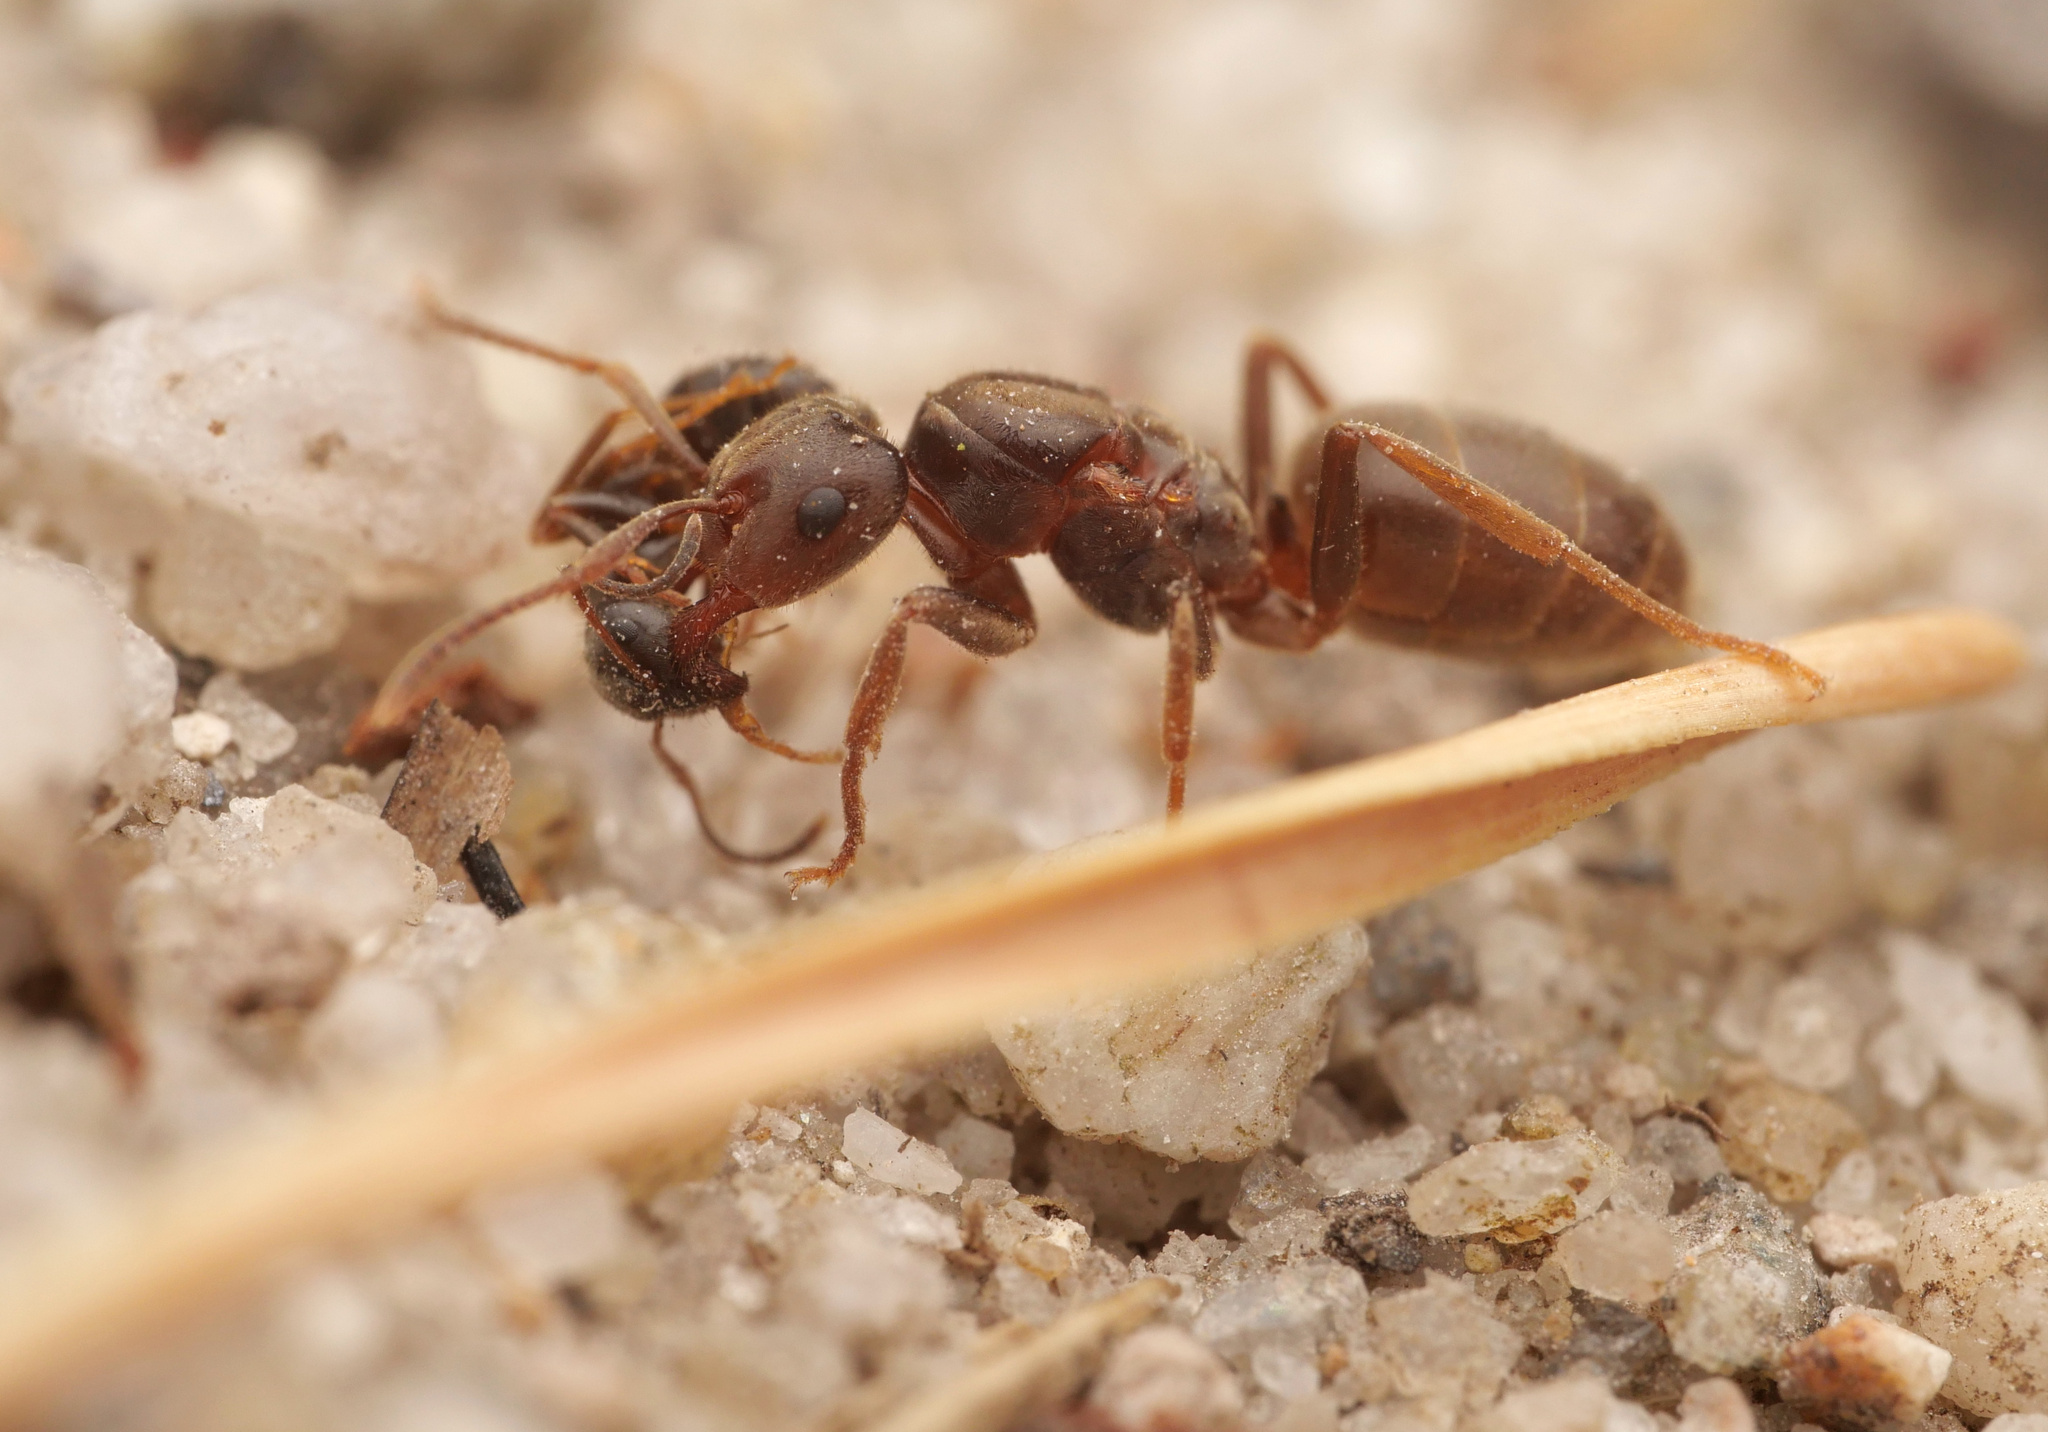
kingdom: Animalia
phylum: Arthropoda
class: Insecta
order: Hymenoptera
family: Formicidae
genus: Lasius
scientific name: Lasius umbratus
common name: Yellow shadow ant
